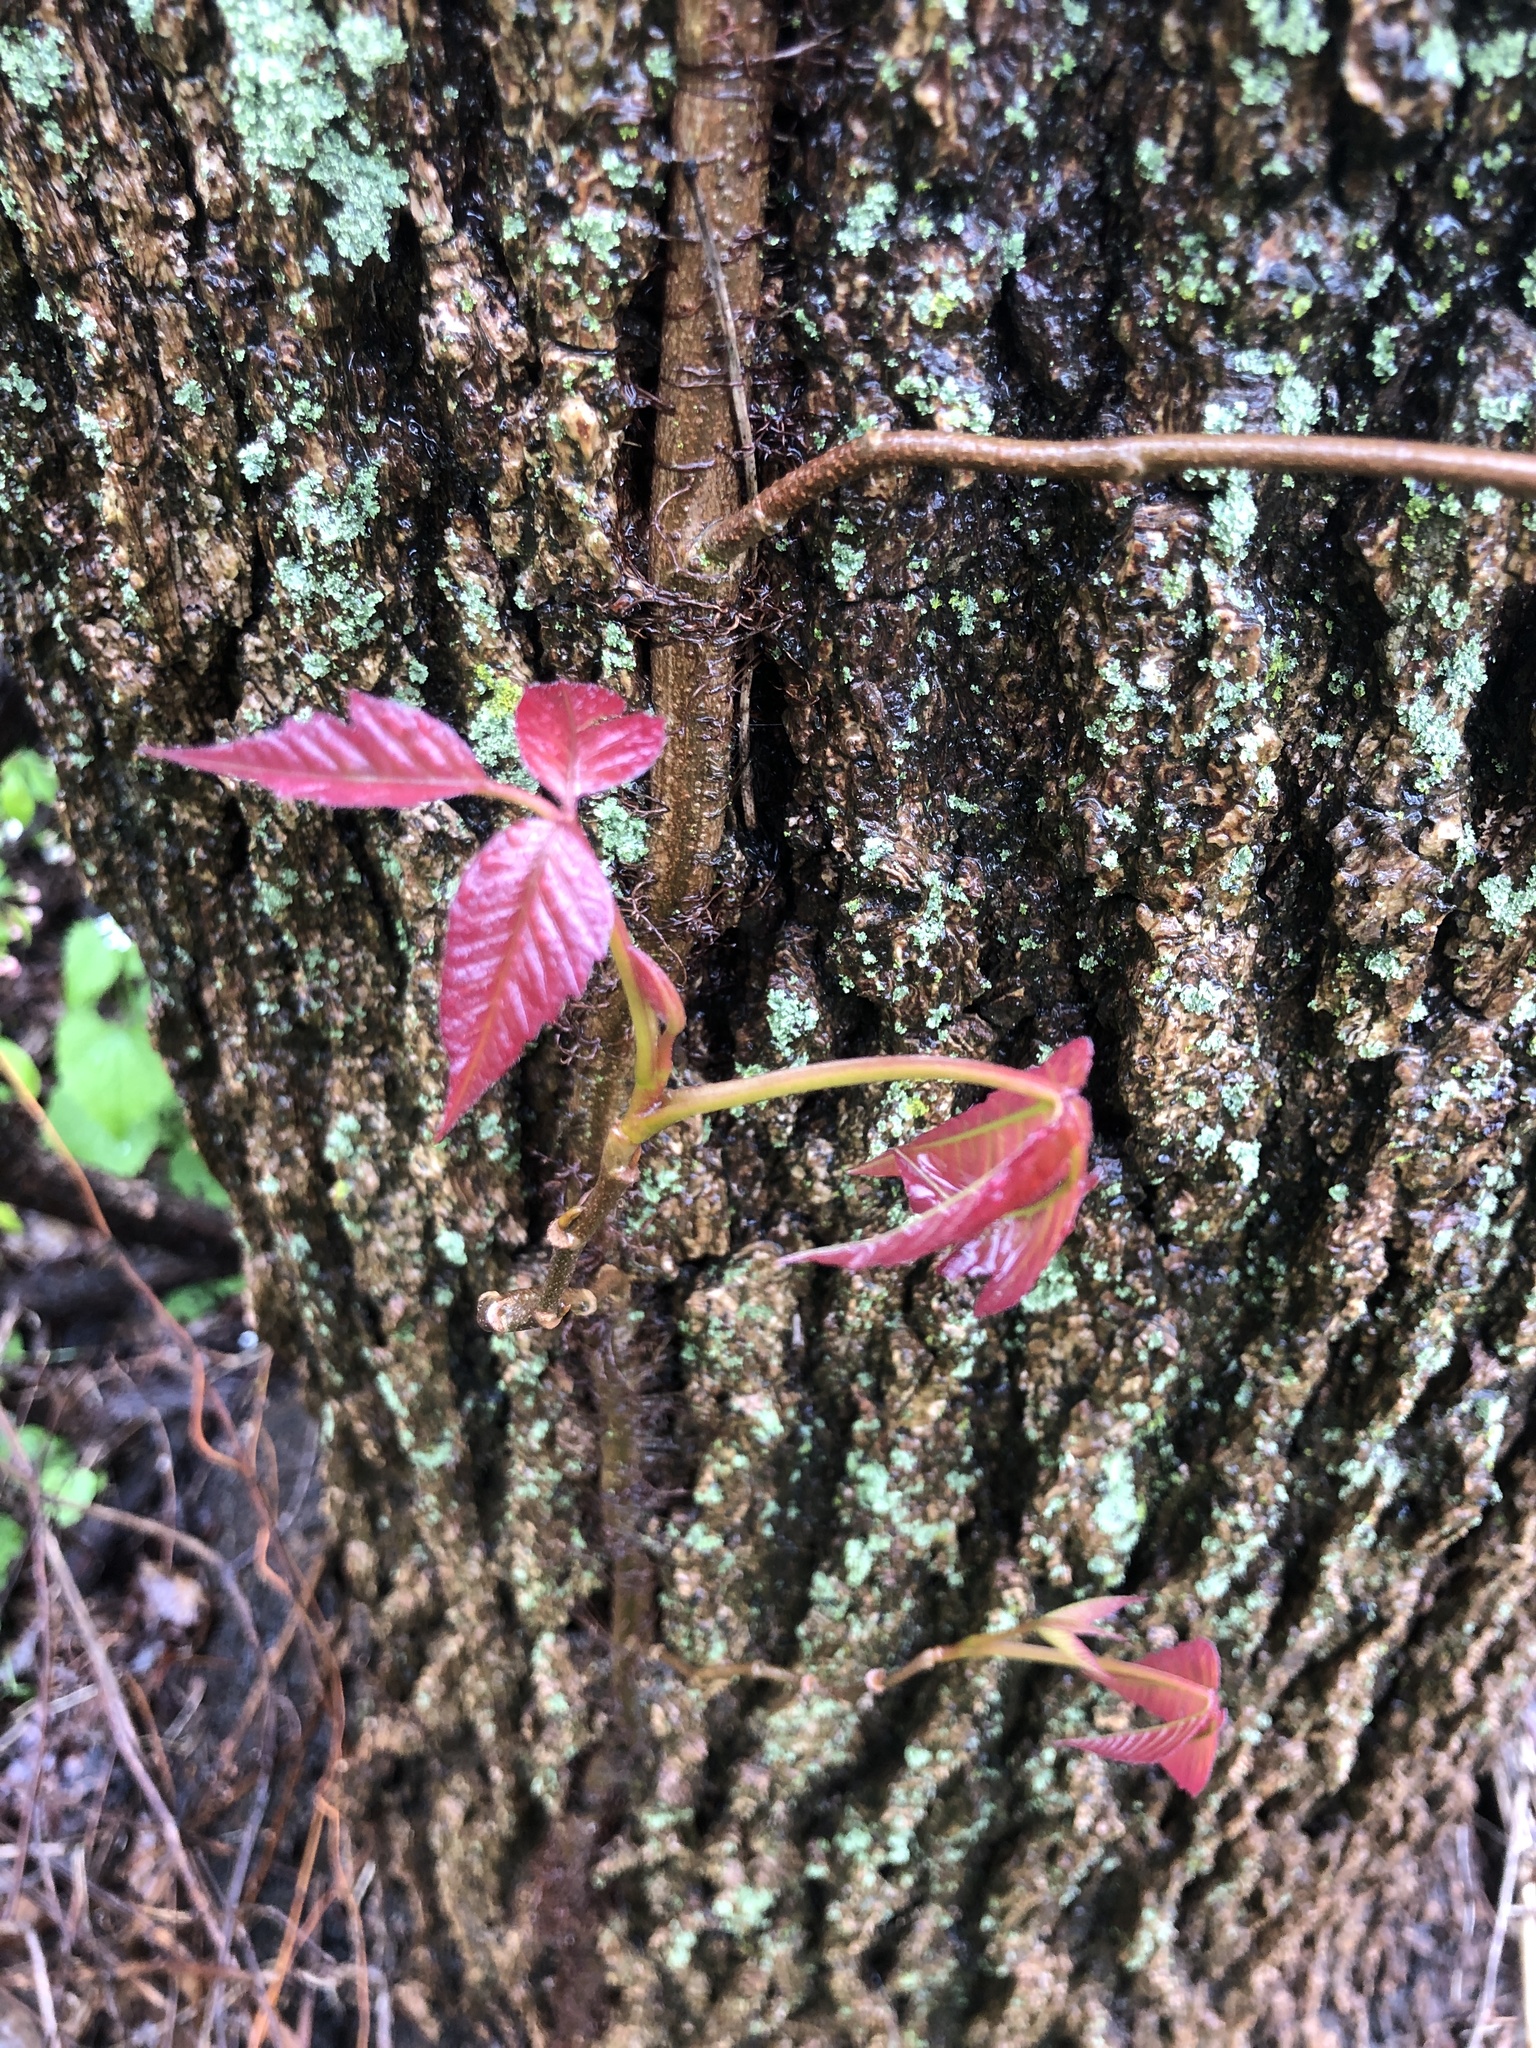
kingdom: Plantae
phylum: Tracheophyta
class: Magnoliopsida
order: Sapindales
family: Anacardiaceae
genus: Toxicodendron
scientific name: Toxicodendron radicans
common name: Poison ivy
